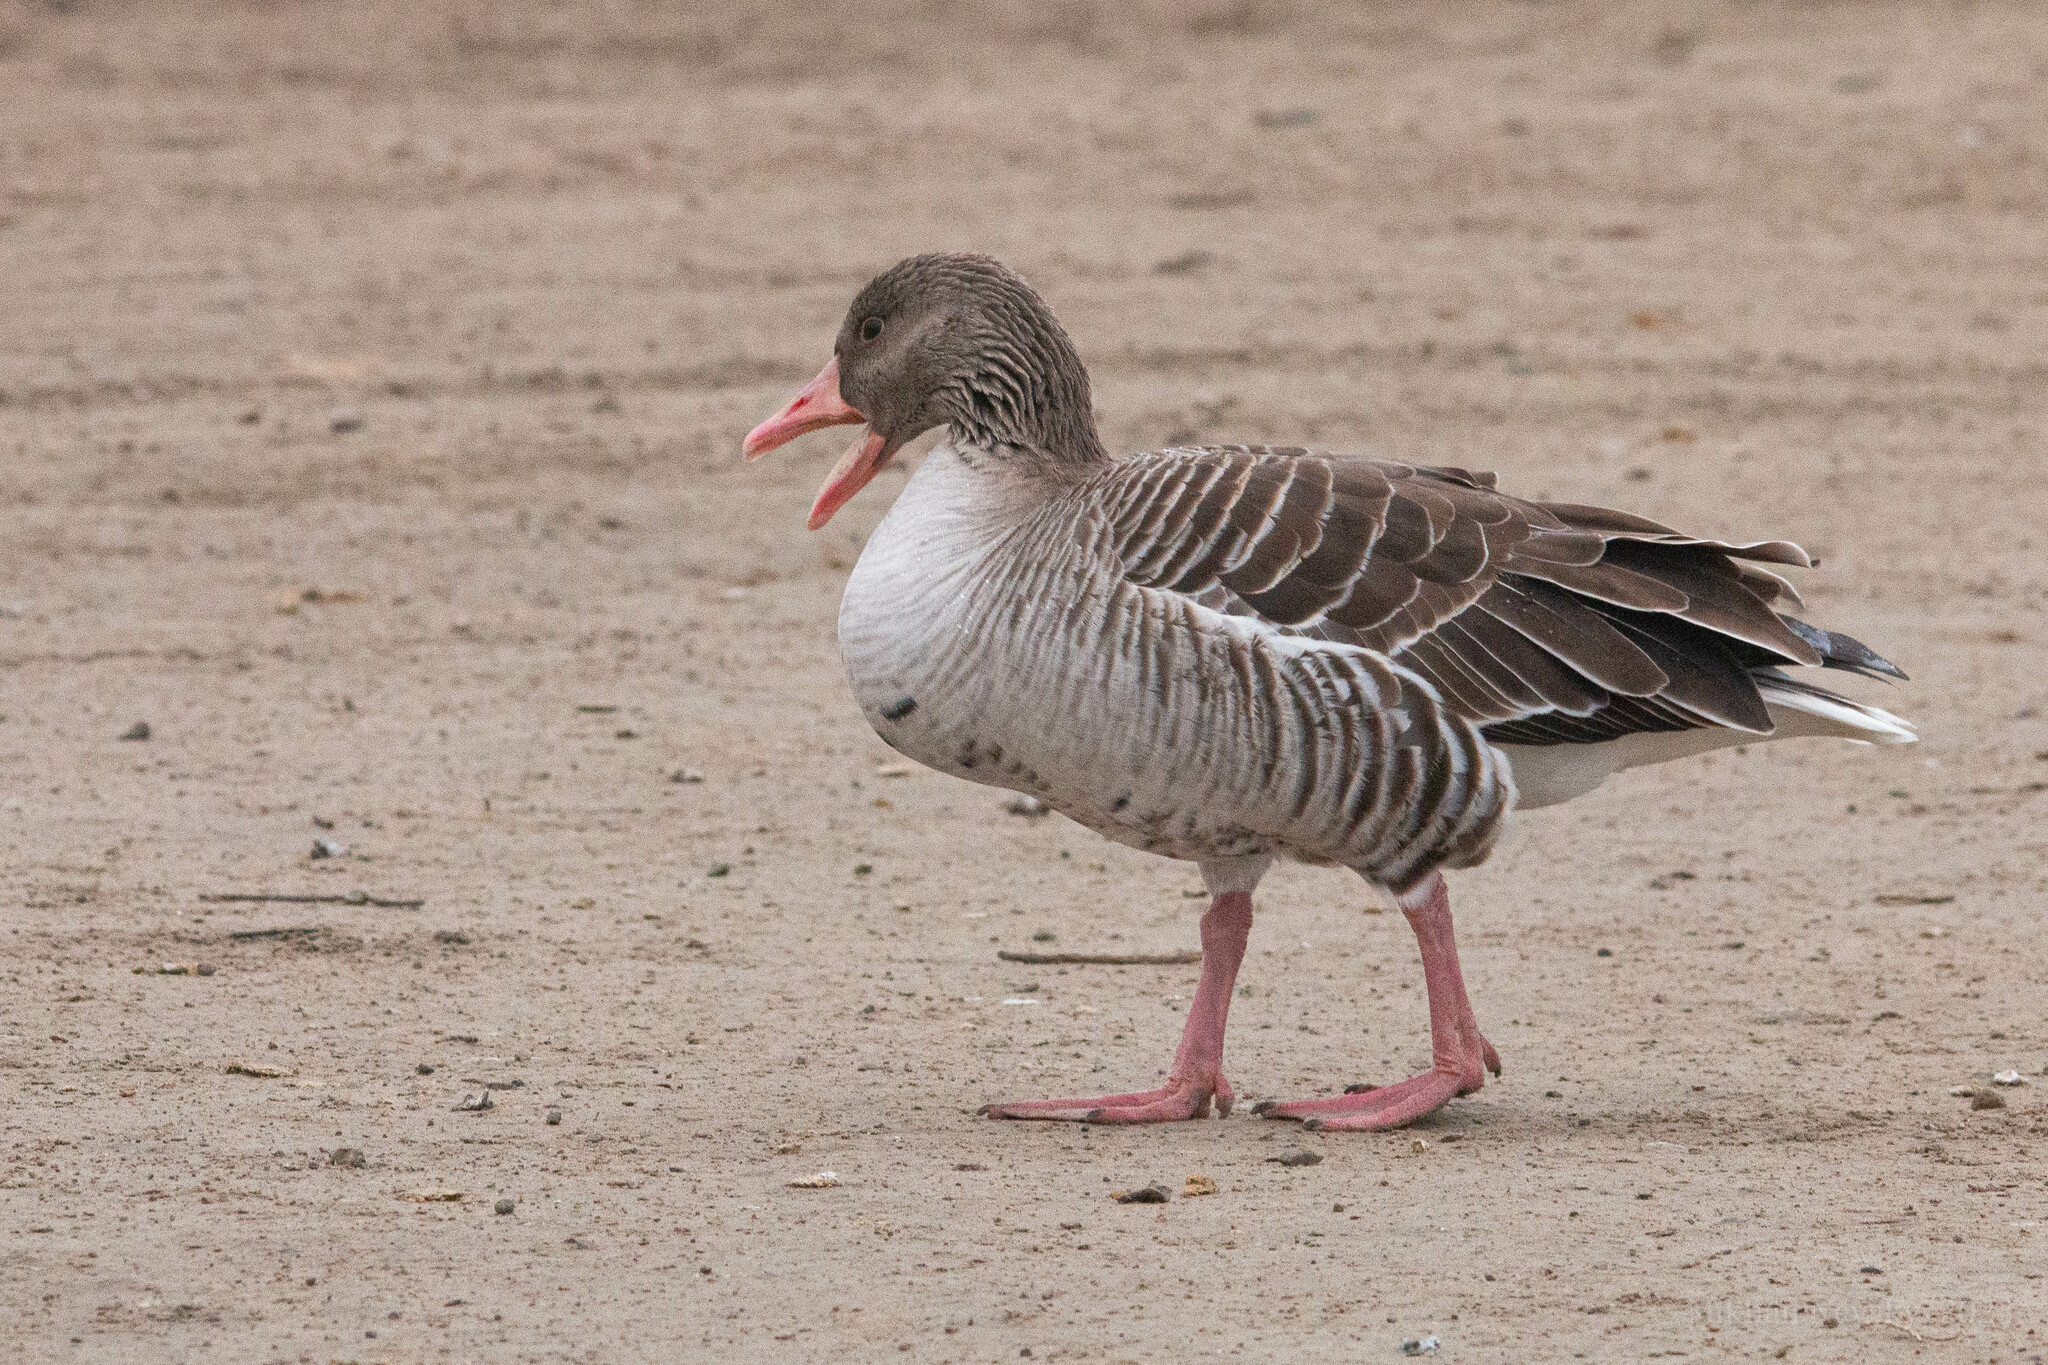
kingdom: Animalia
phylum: Chordata
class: Aves
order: Anseriformes
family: Anatidae
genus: Anser
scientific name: Anser anser
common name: Greylag goose
